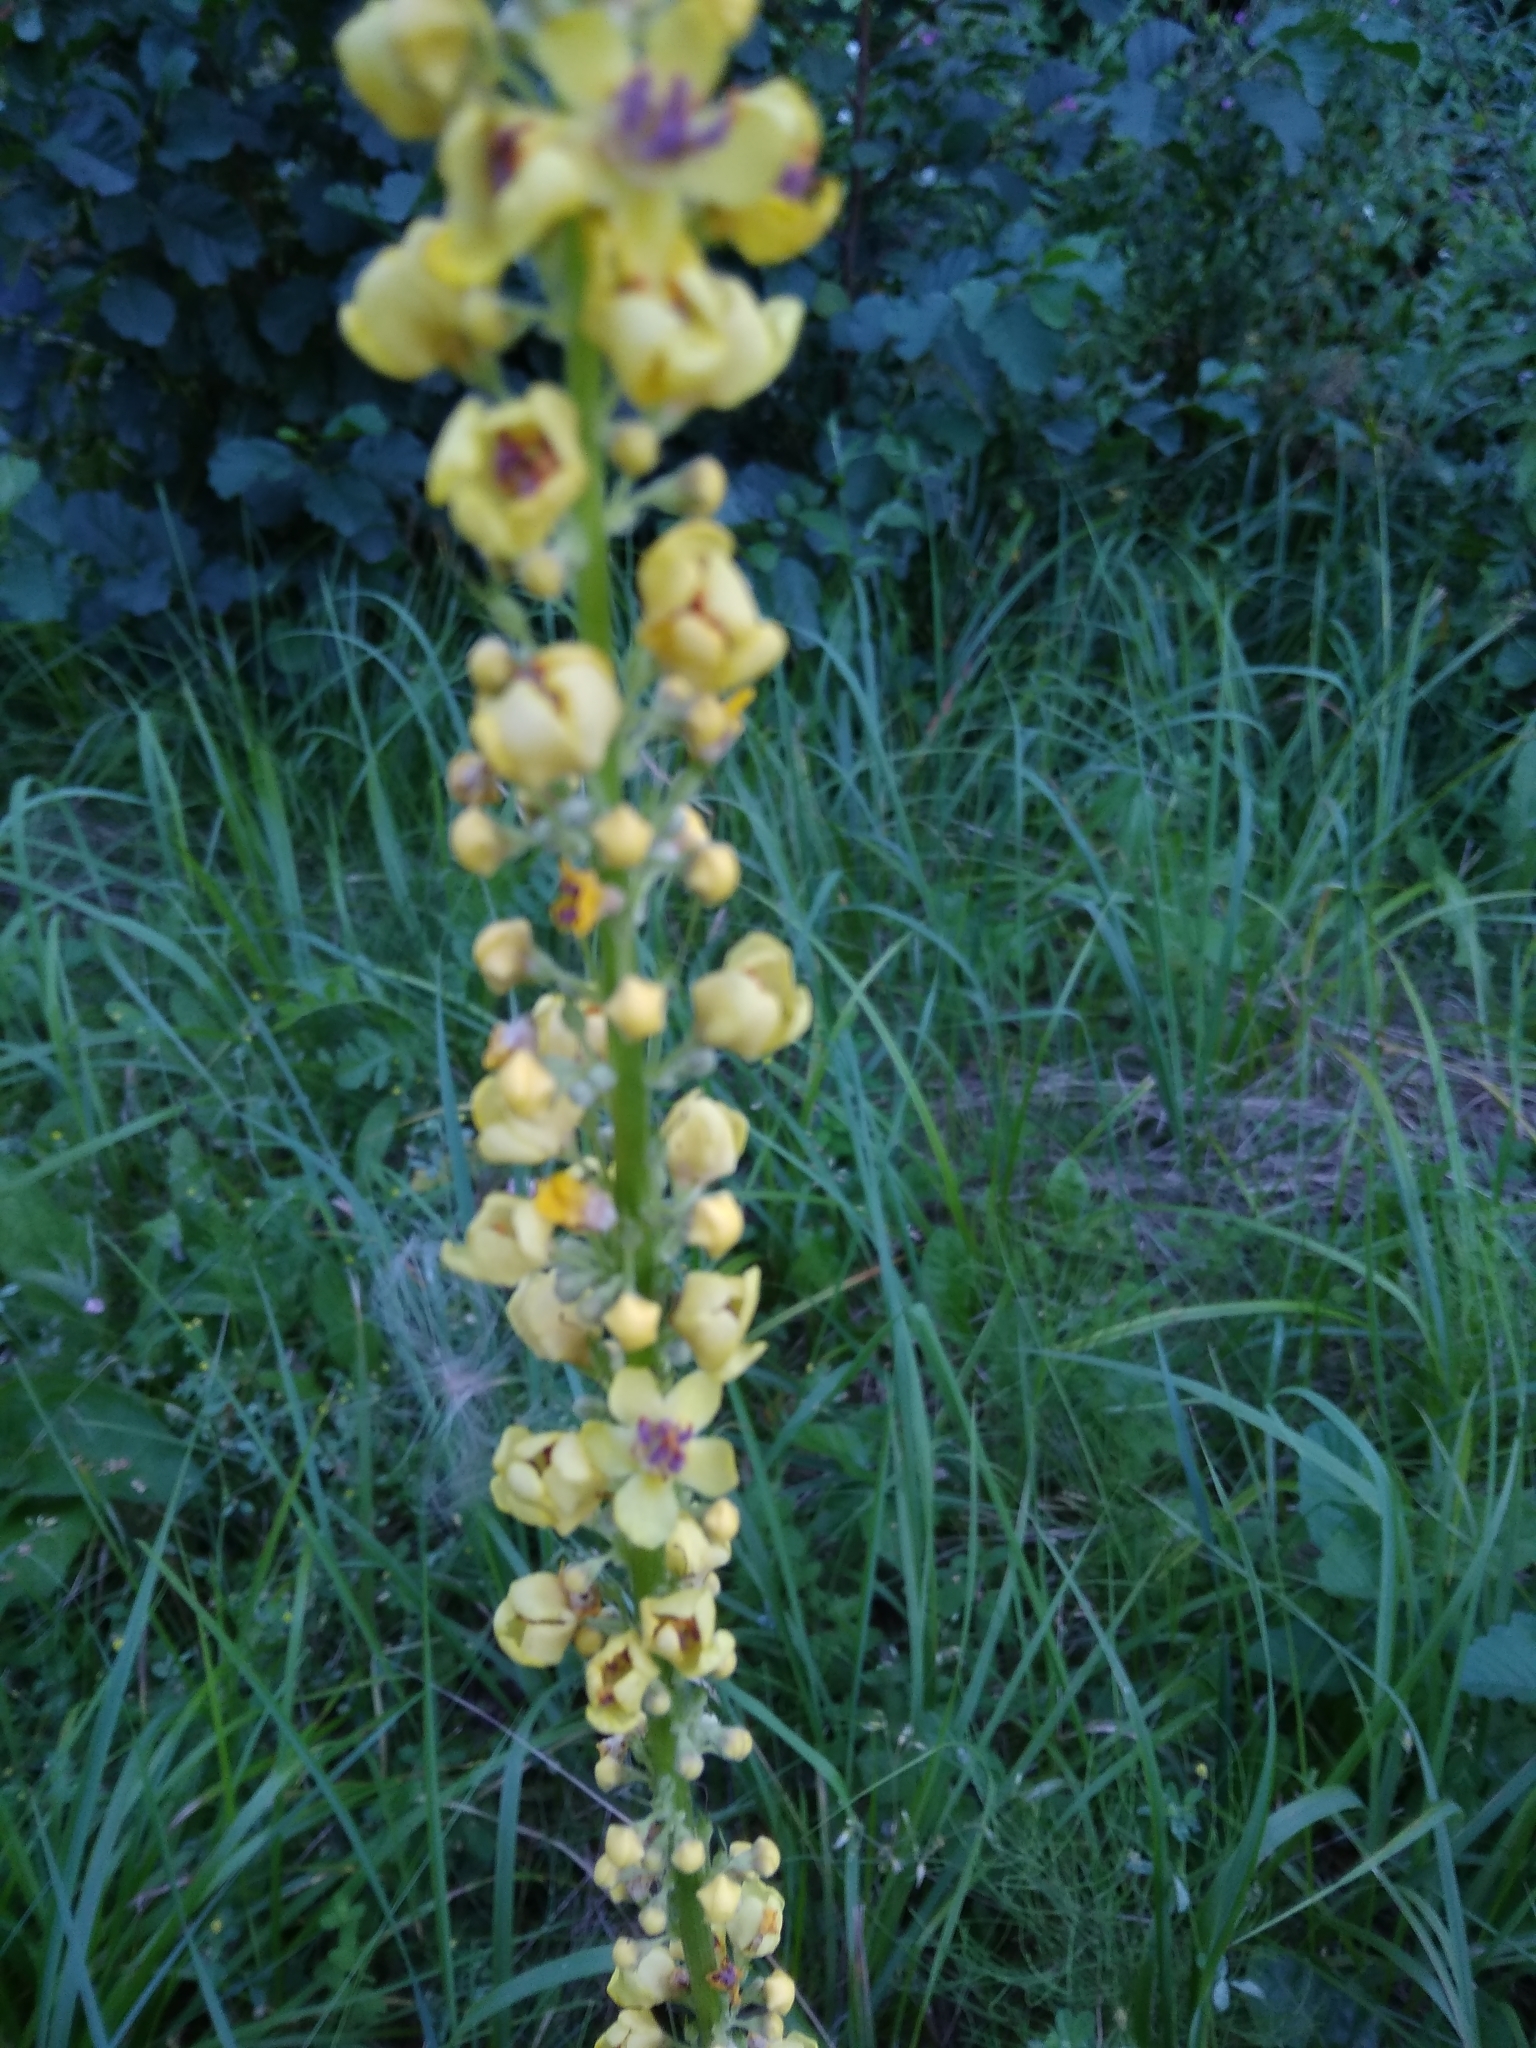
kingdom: Plantae
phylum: Tracheophyta
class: Magnoliopsida
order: Lamiales
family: Scrophulariaceae
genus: Verbascum
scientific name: Verbascum nigrum
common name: Dark mullein
